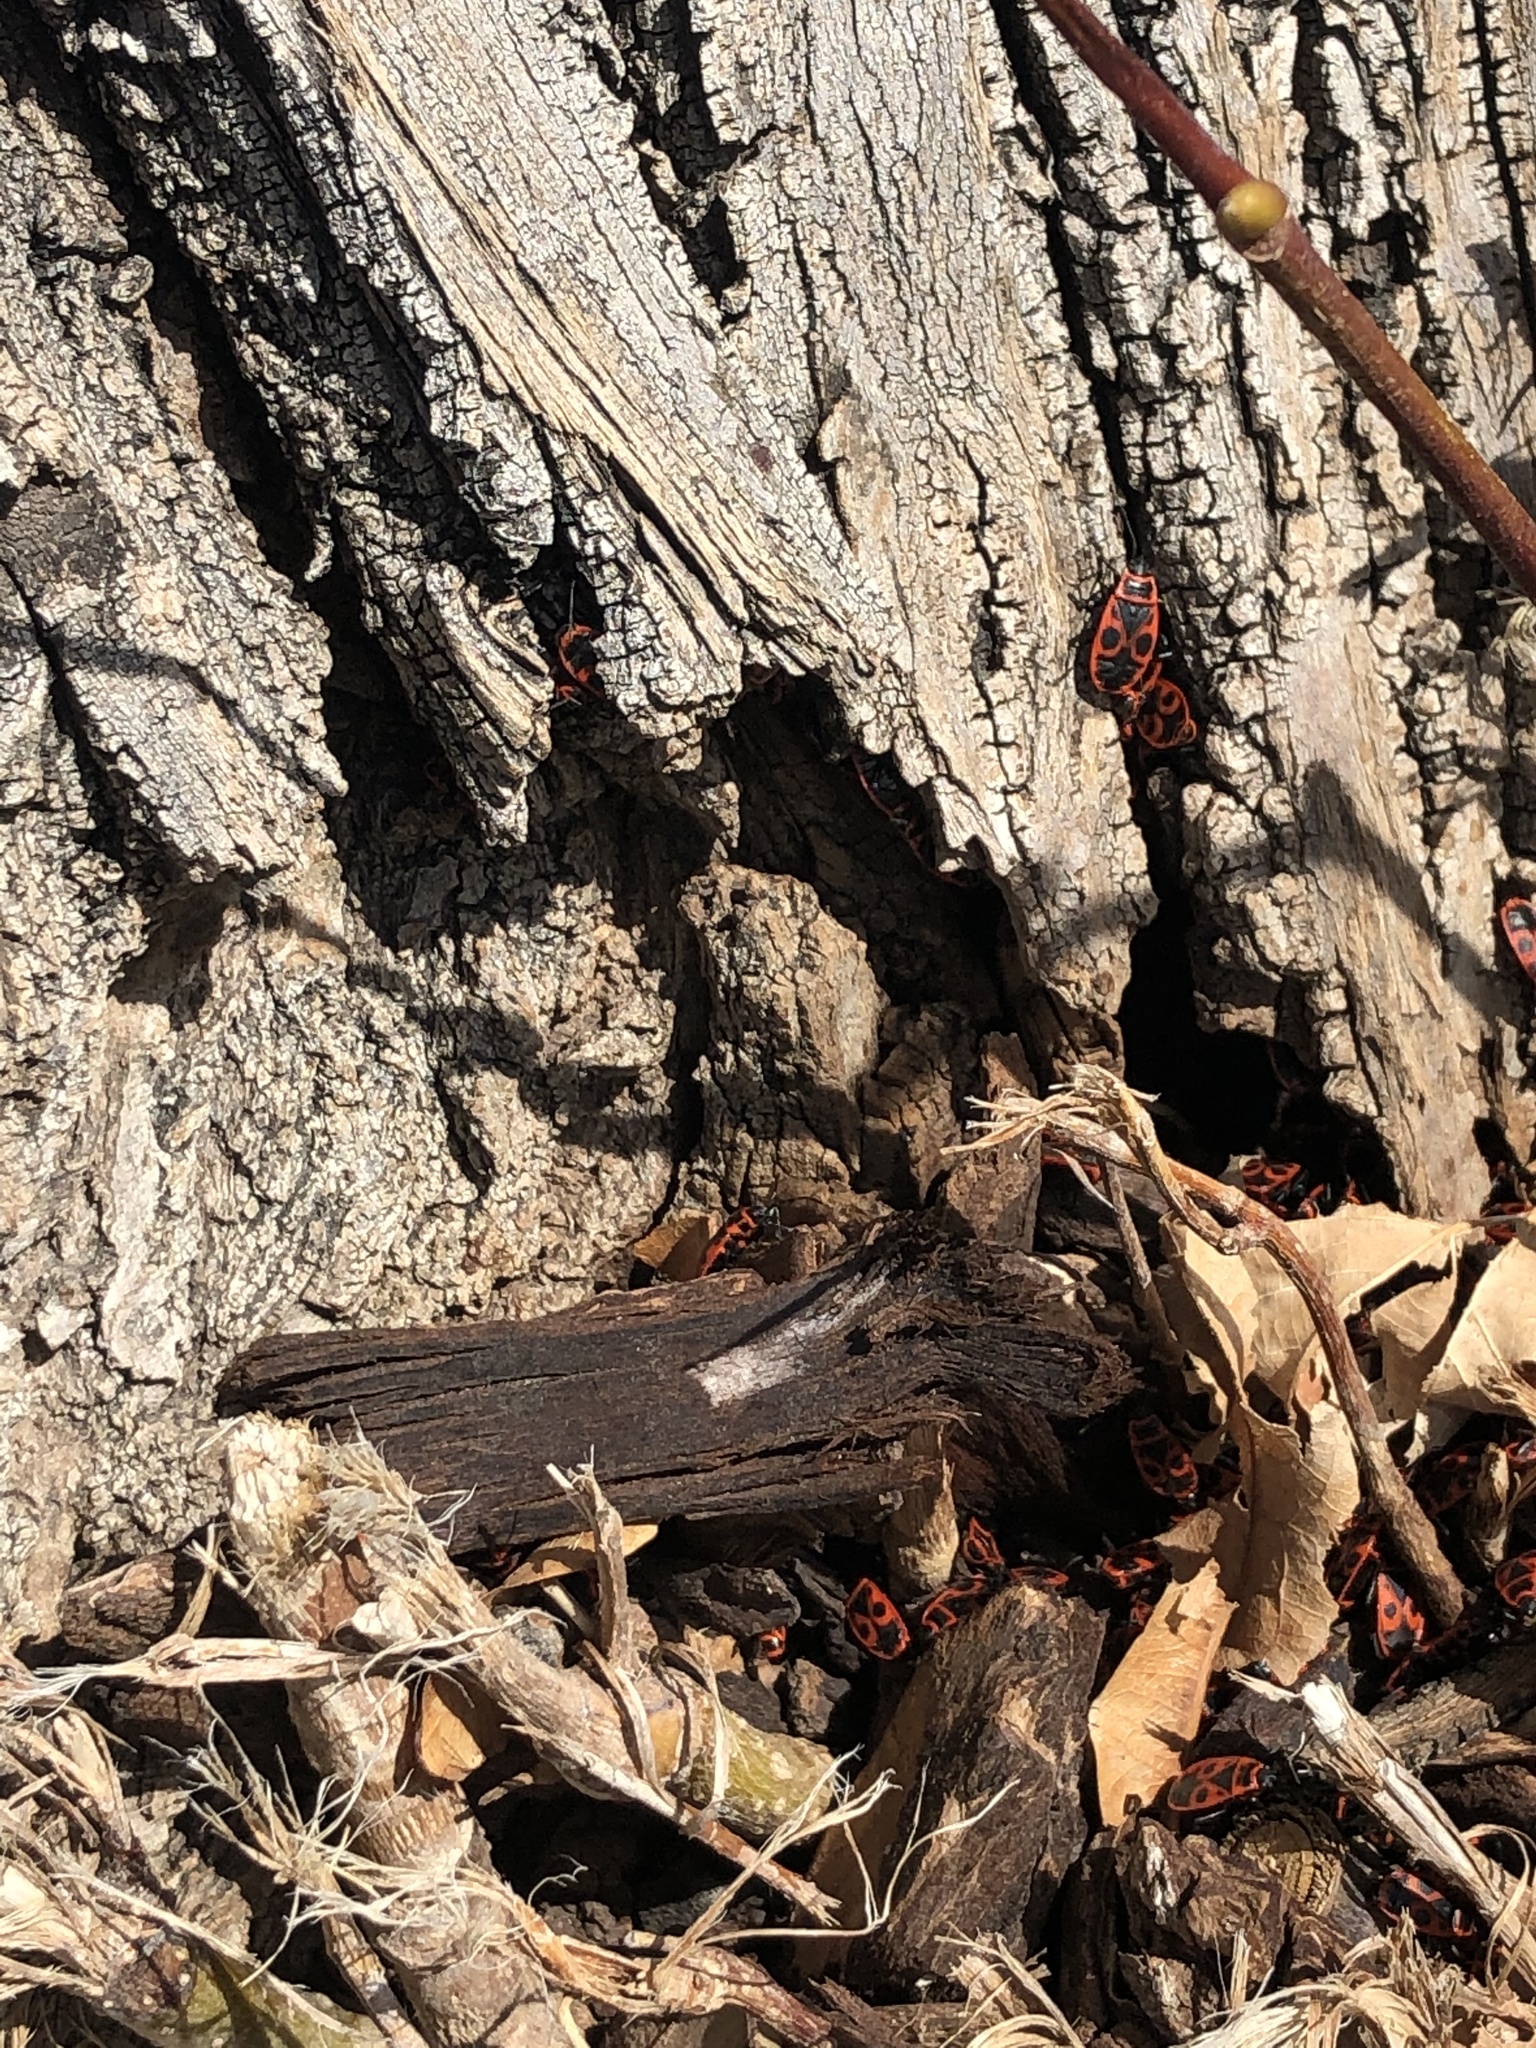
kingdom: Animalia
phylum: Arthropoda
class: Insecta
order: Hemiptera
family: Pyrrhocoridae
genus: Pyrrhocoris
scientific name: Pyrrhocoris apterus
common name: Firebug
